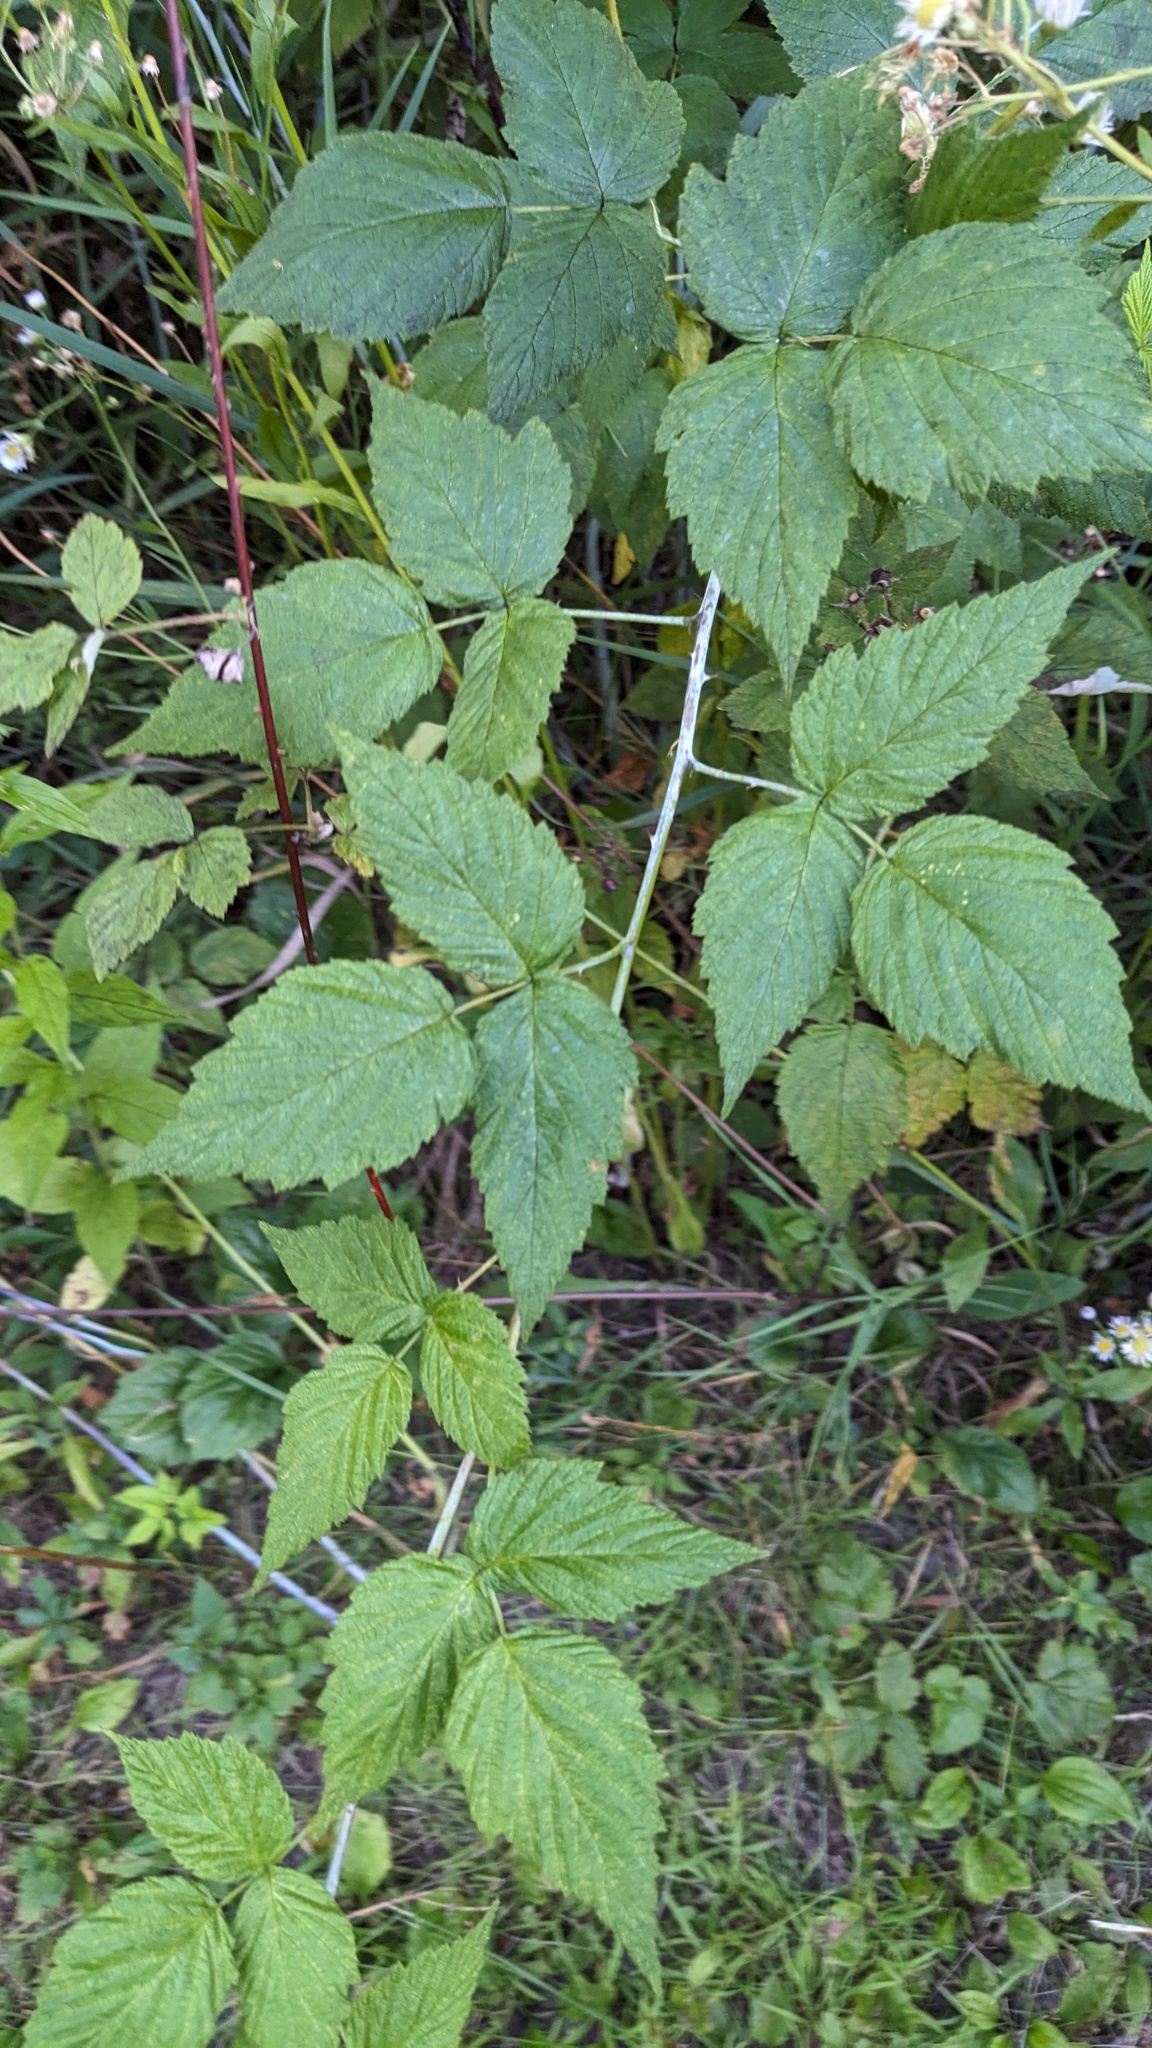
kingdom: Plantae
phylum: Tracheophyta
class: Magnoliopsida
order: Rosales
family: Rosaceae
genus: Rubus
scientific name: Rubus occidentalis
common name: Black raspberry
